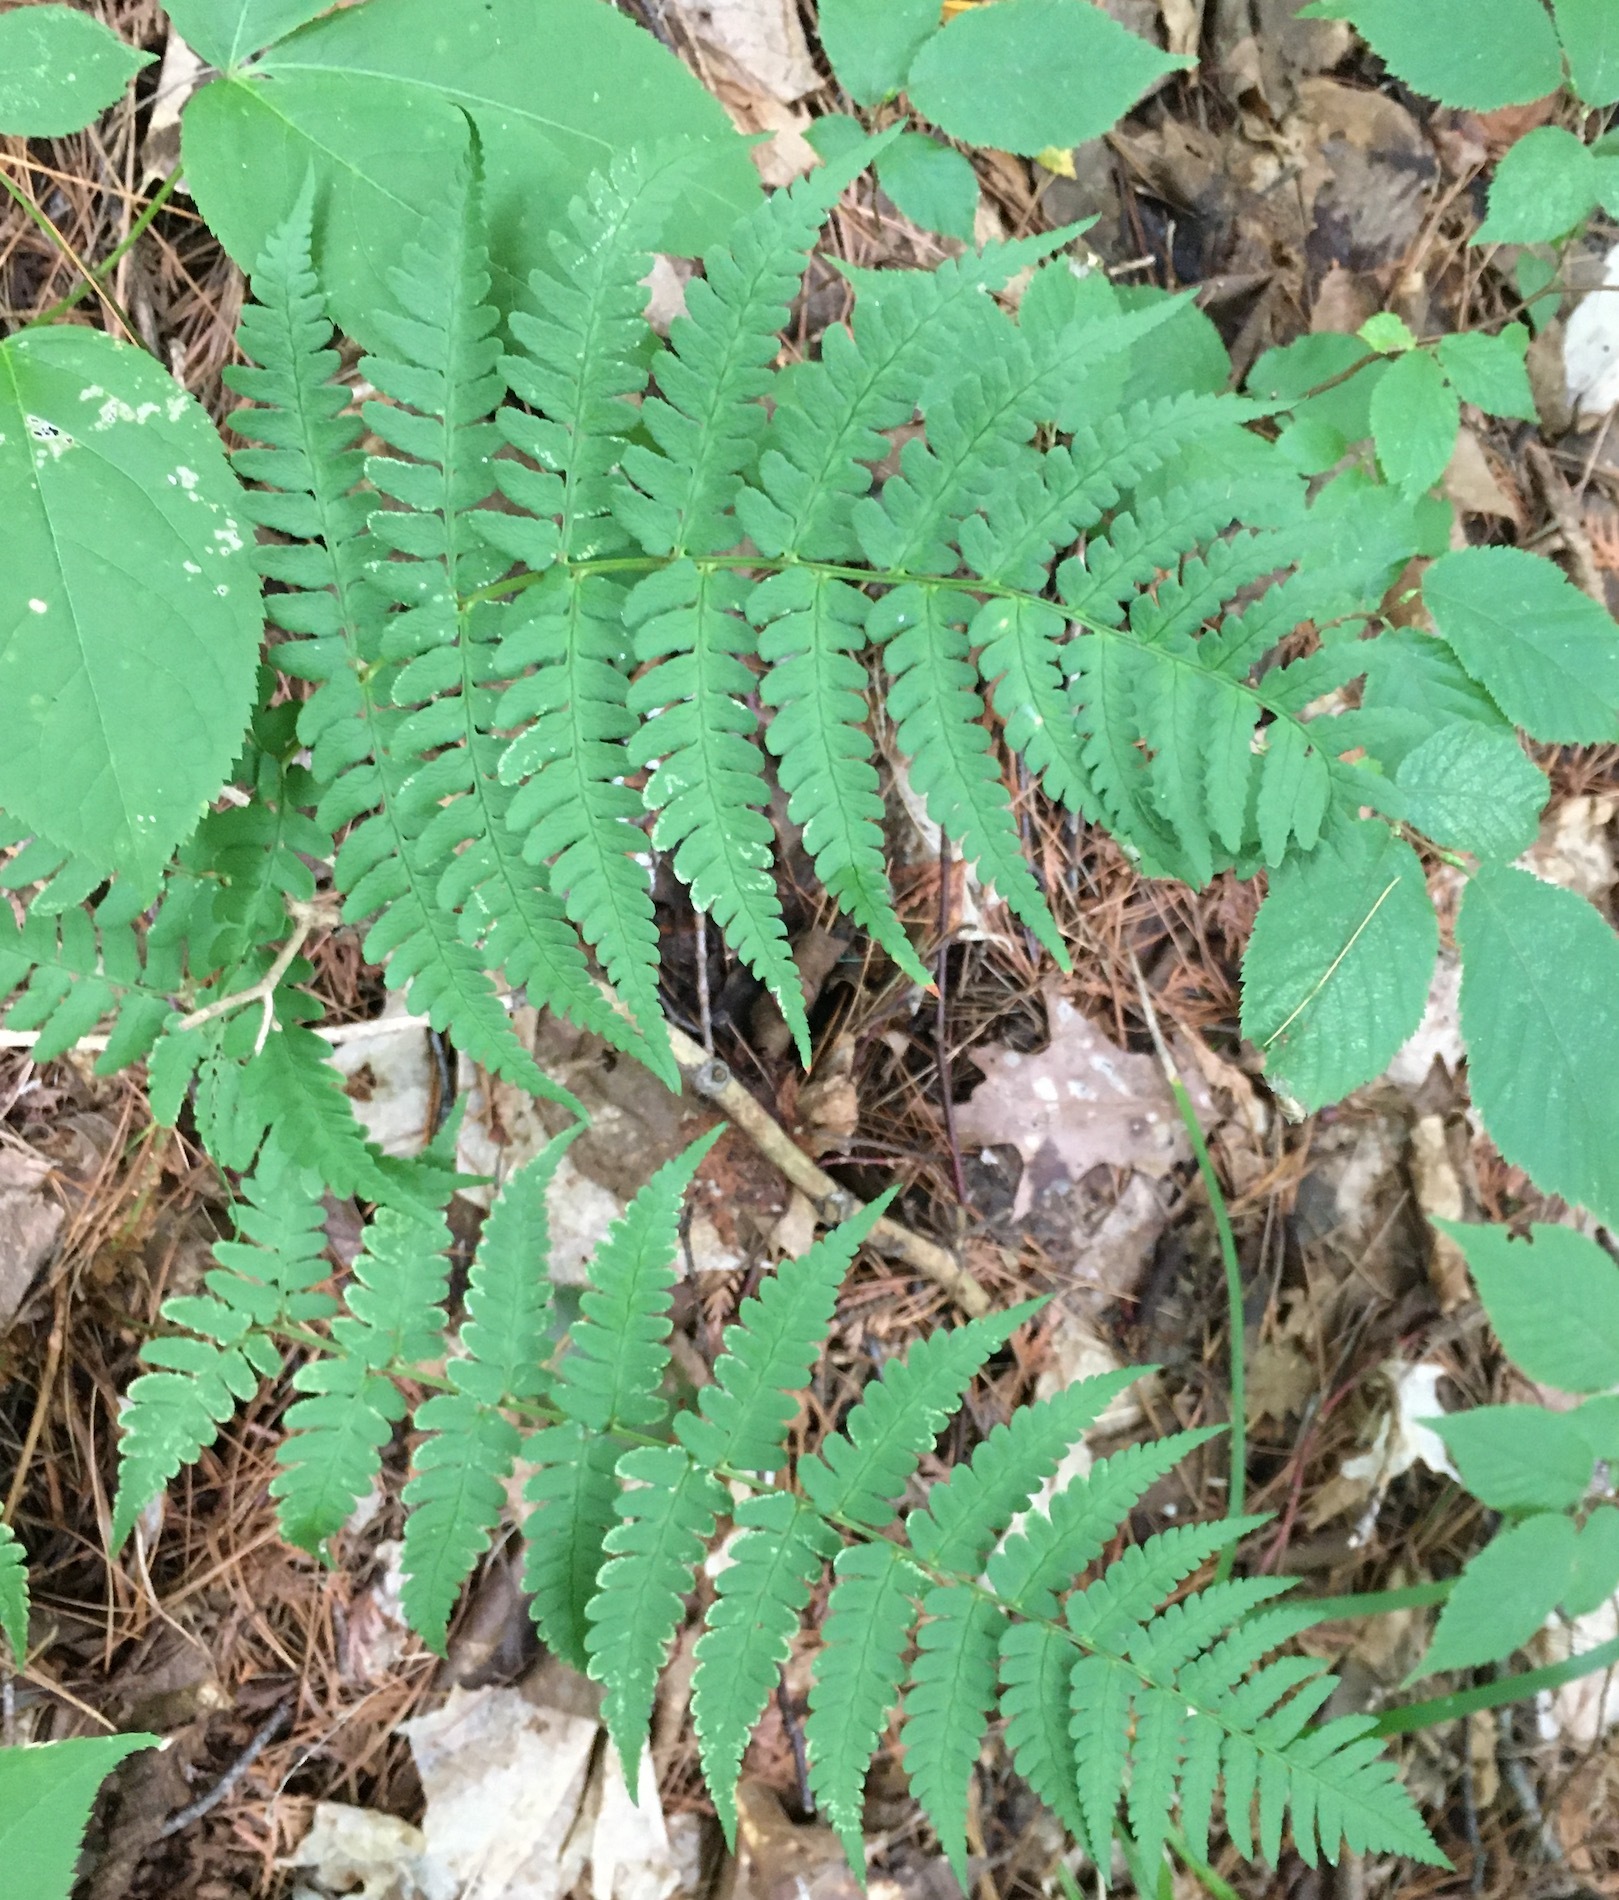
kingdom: Plantae
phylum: Tracheophyta
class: Polypodiopsida
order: Polypodiales
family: Dryopteridaceae
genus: Dryopteris
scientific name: Dryopteris marginalis
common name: Marginal wood fern
